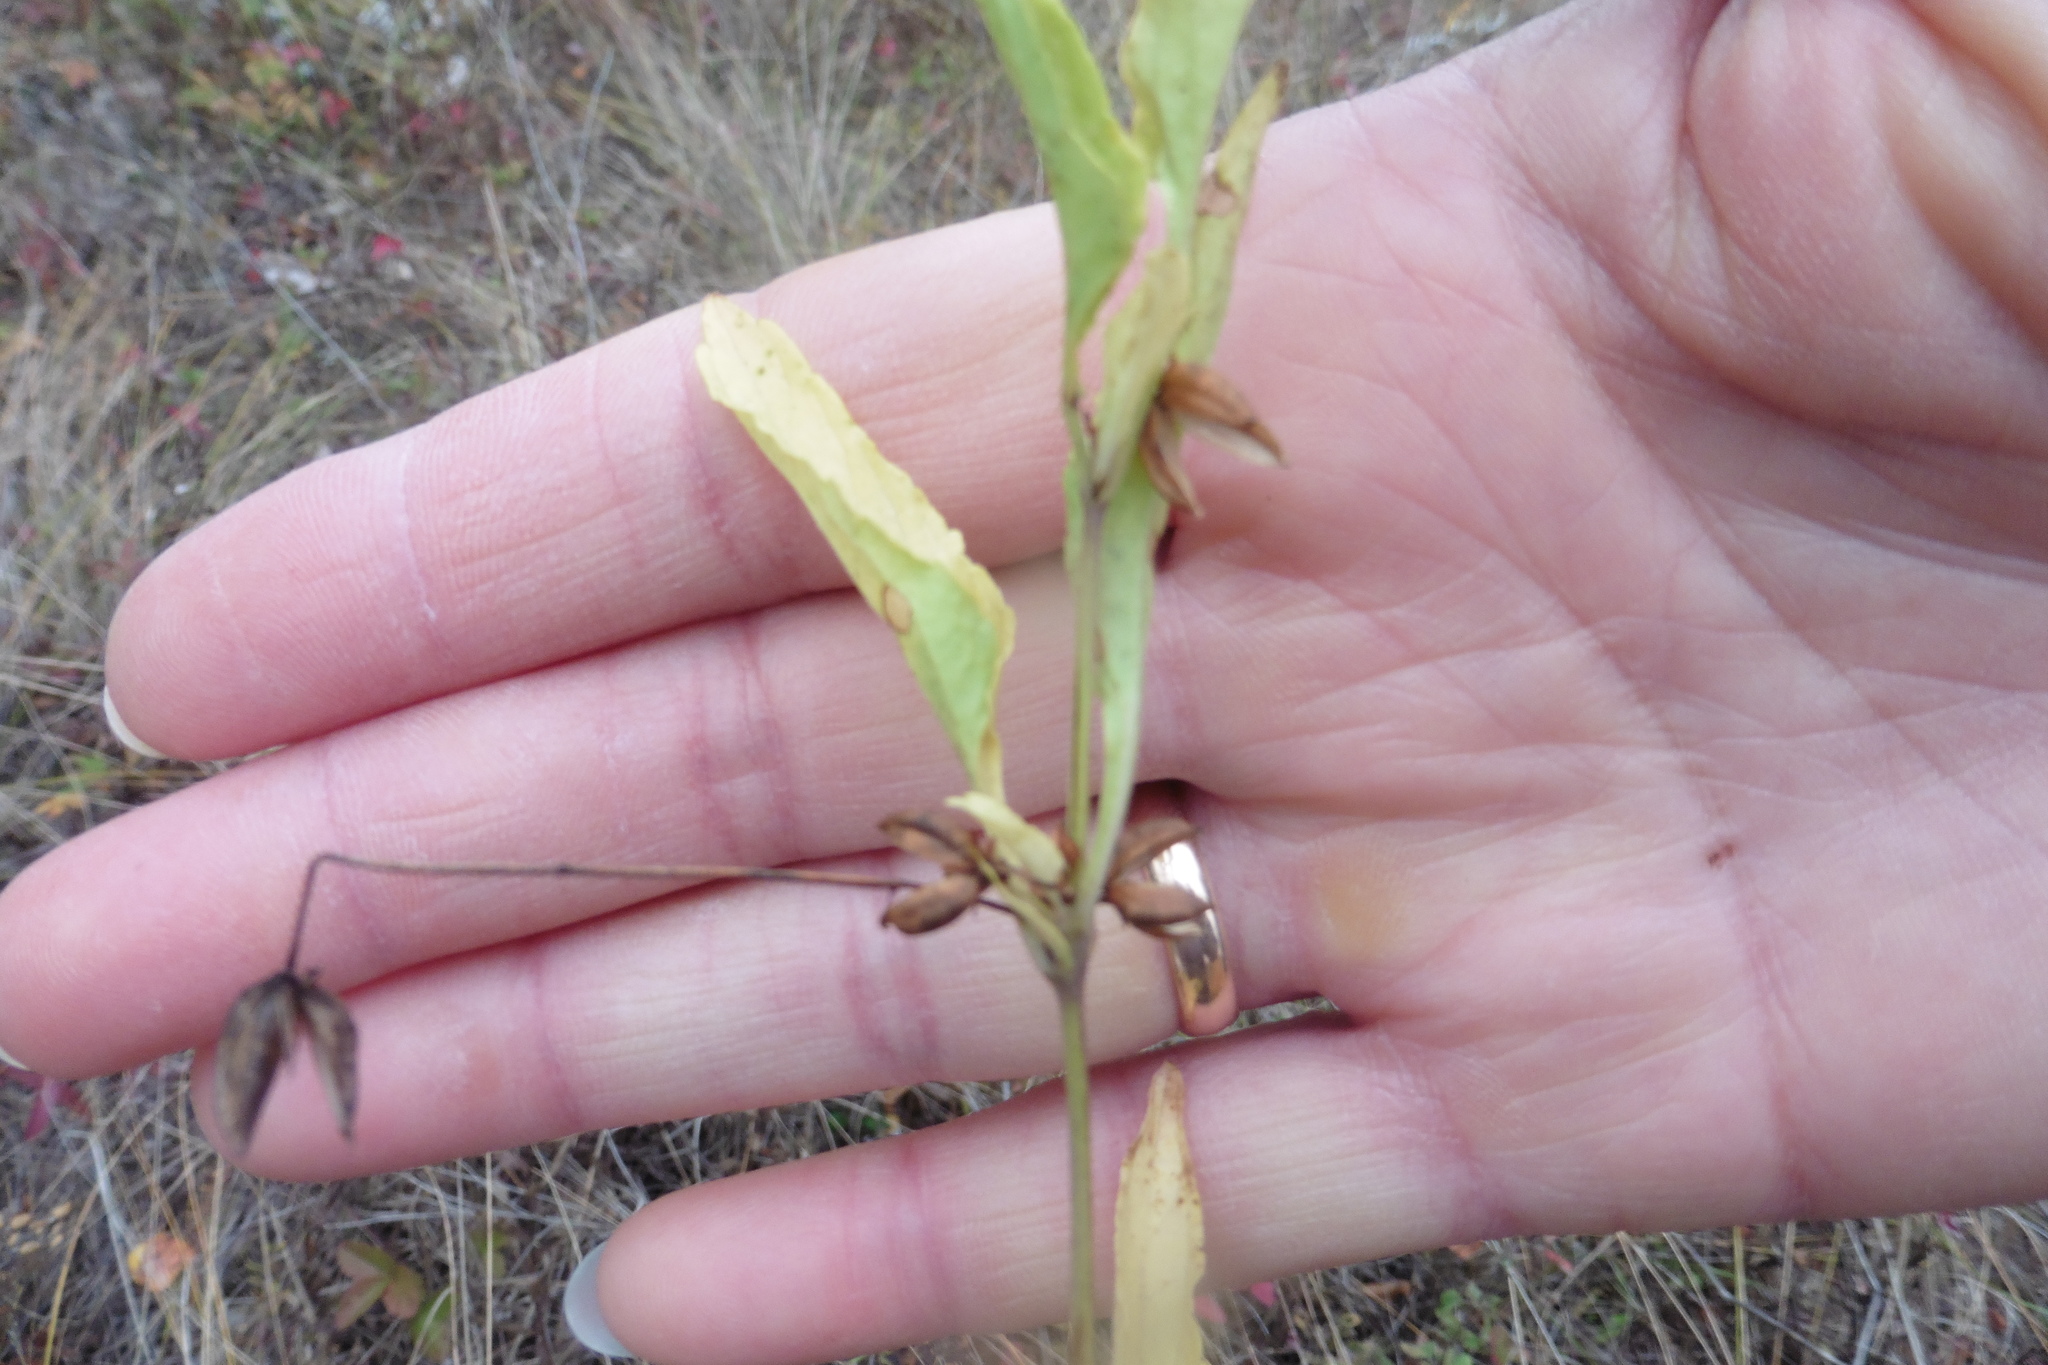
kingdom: Plantae
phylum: Tracheophyta
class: Magnoliopsida
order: Malpighiales
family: Violaceae
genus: Viola
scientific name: Viola elatior
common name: Tall violet
